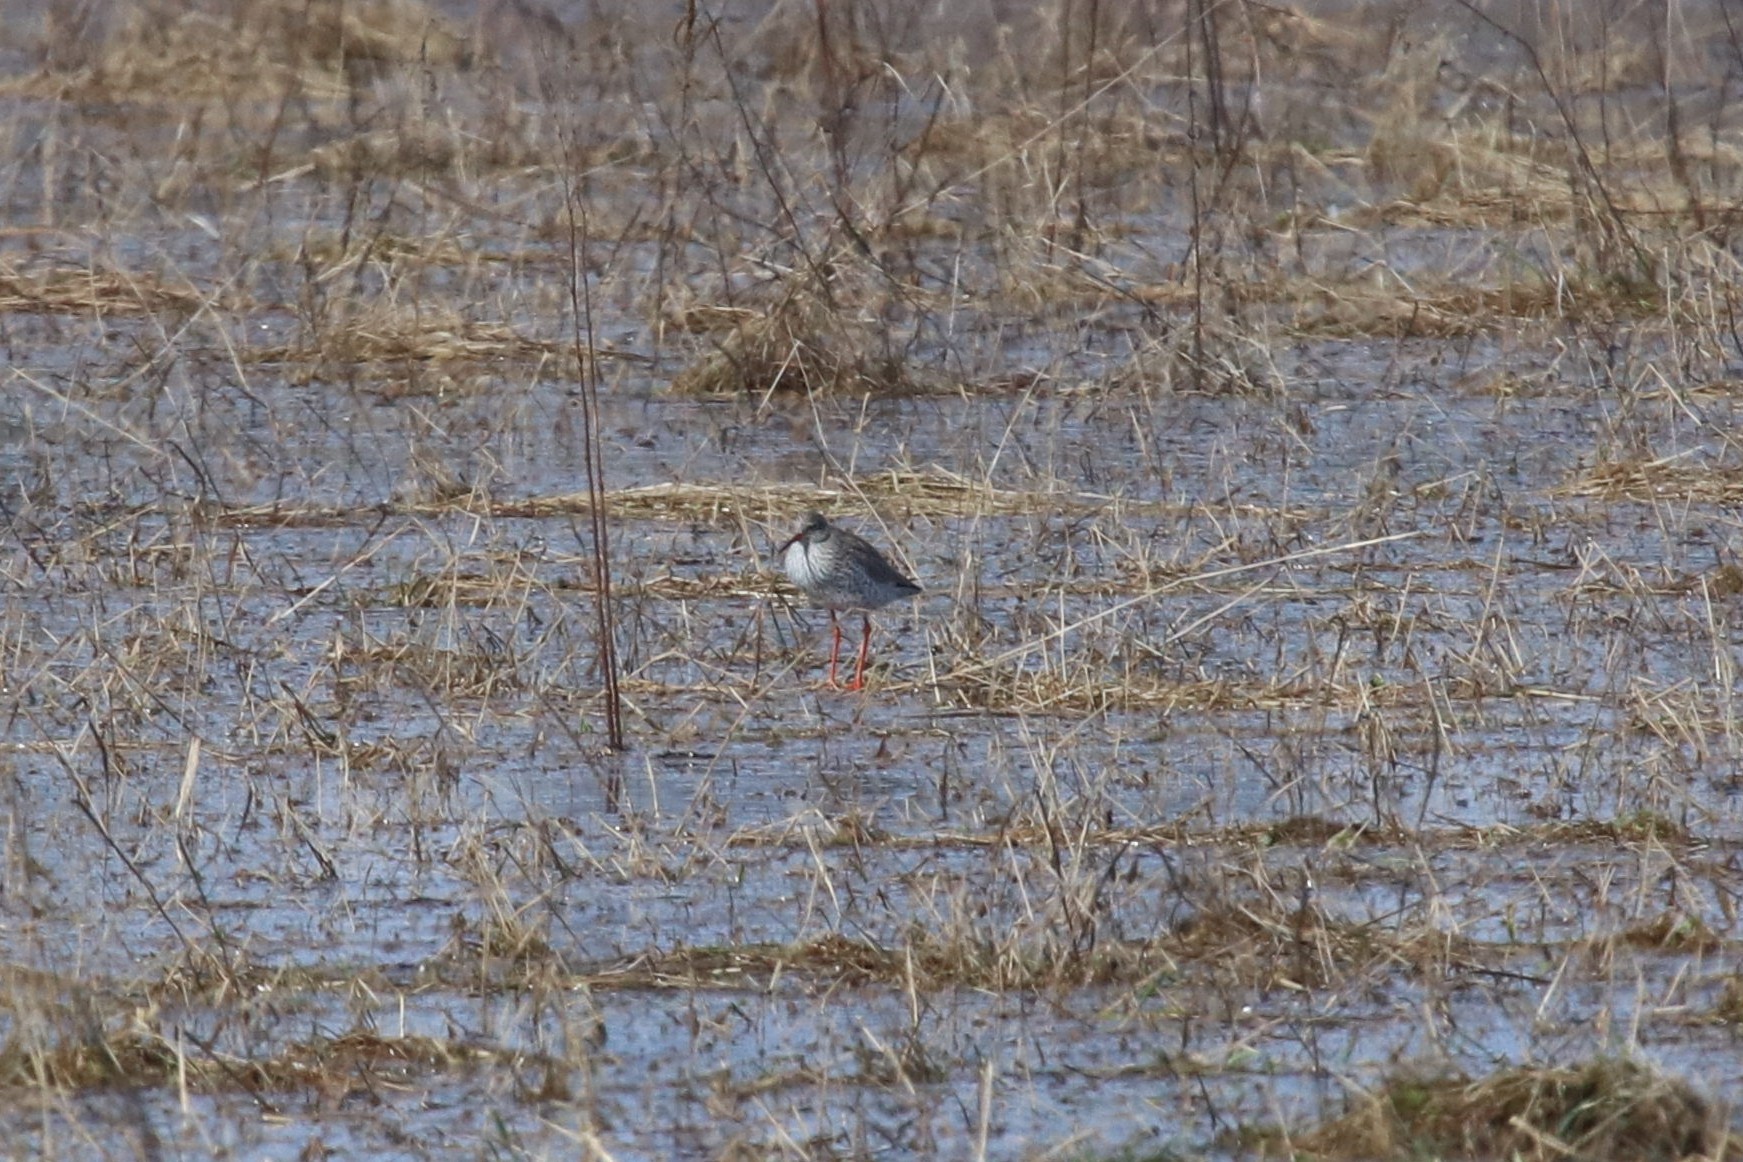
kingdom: Animalia
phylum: Chordata
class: Aves
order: Charadriiformes
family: Scolopacidae
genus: Tringa
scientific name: Tringa totanus
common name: Common redshank
